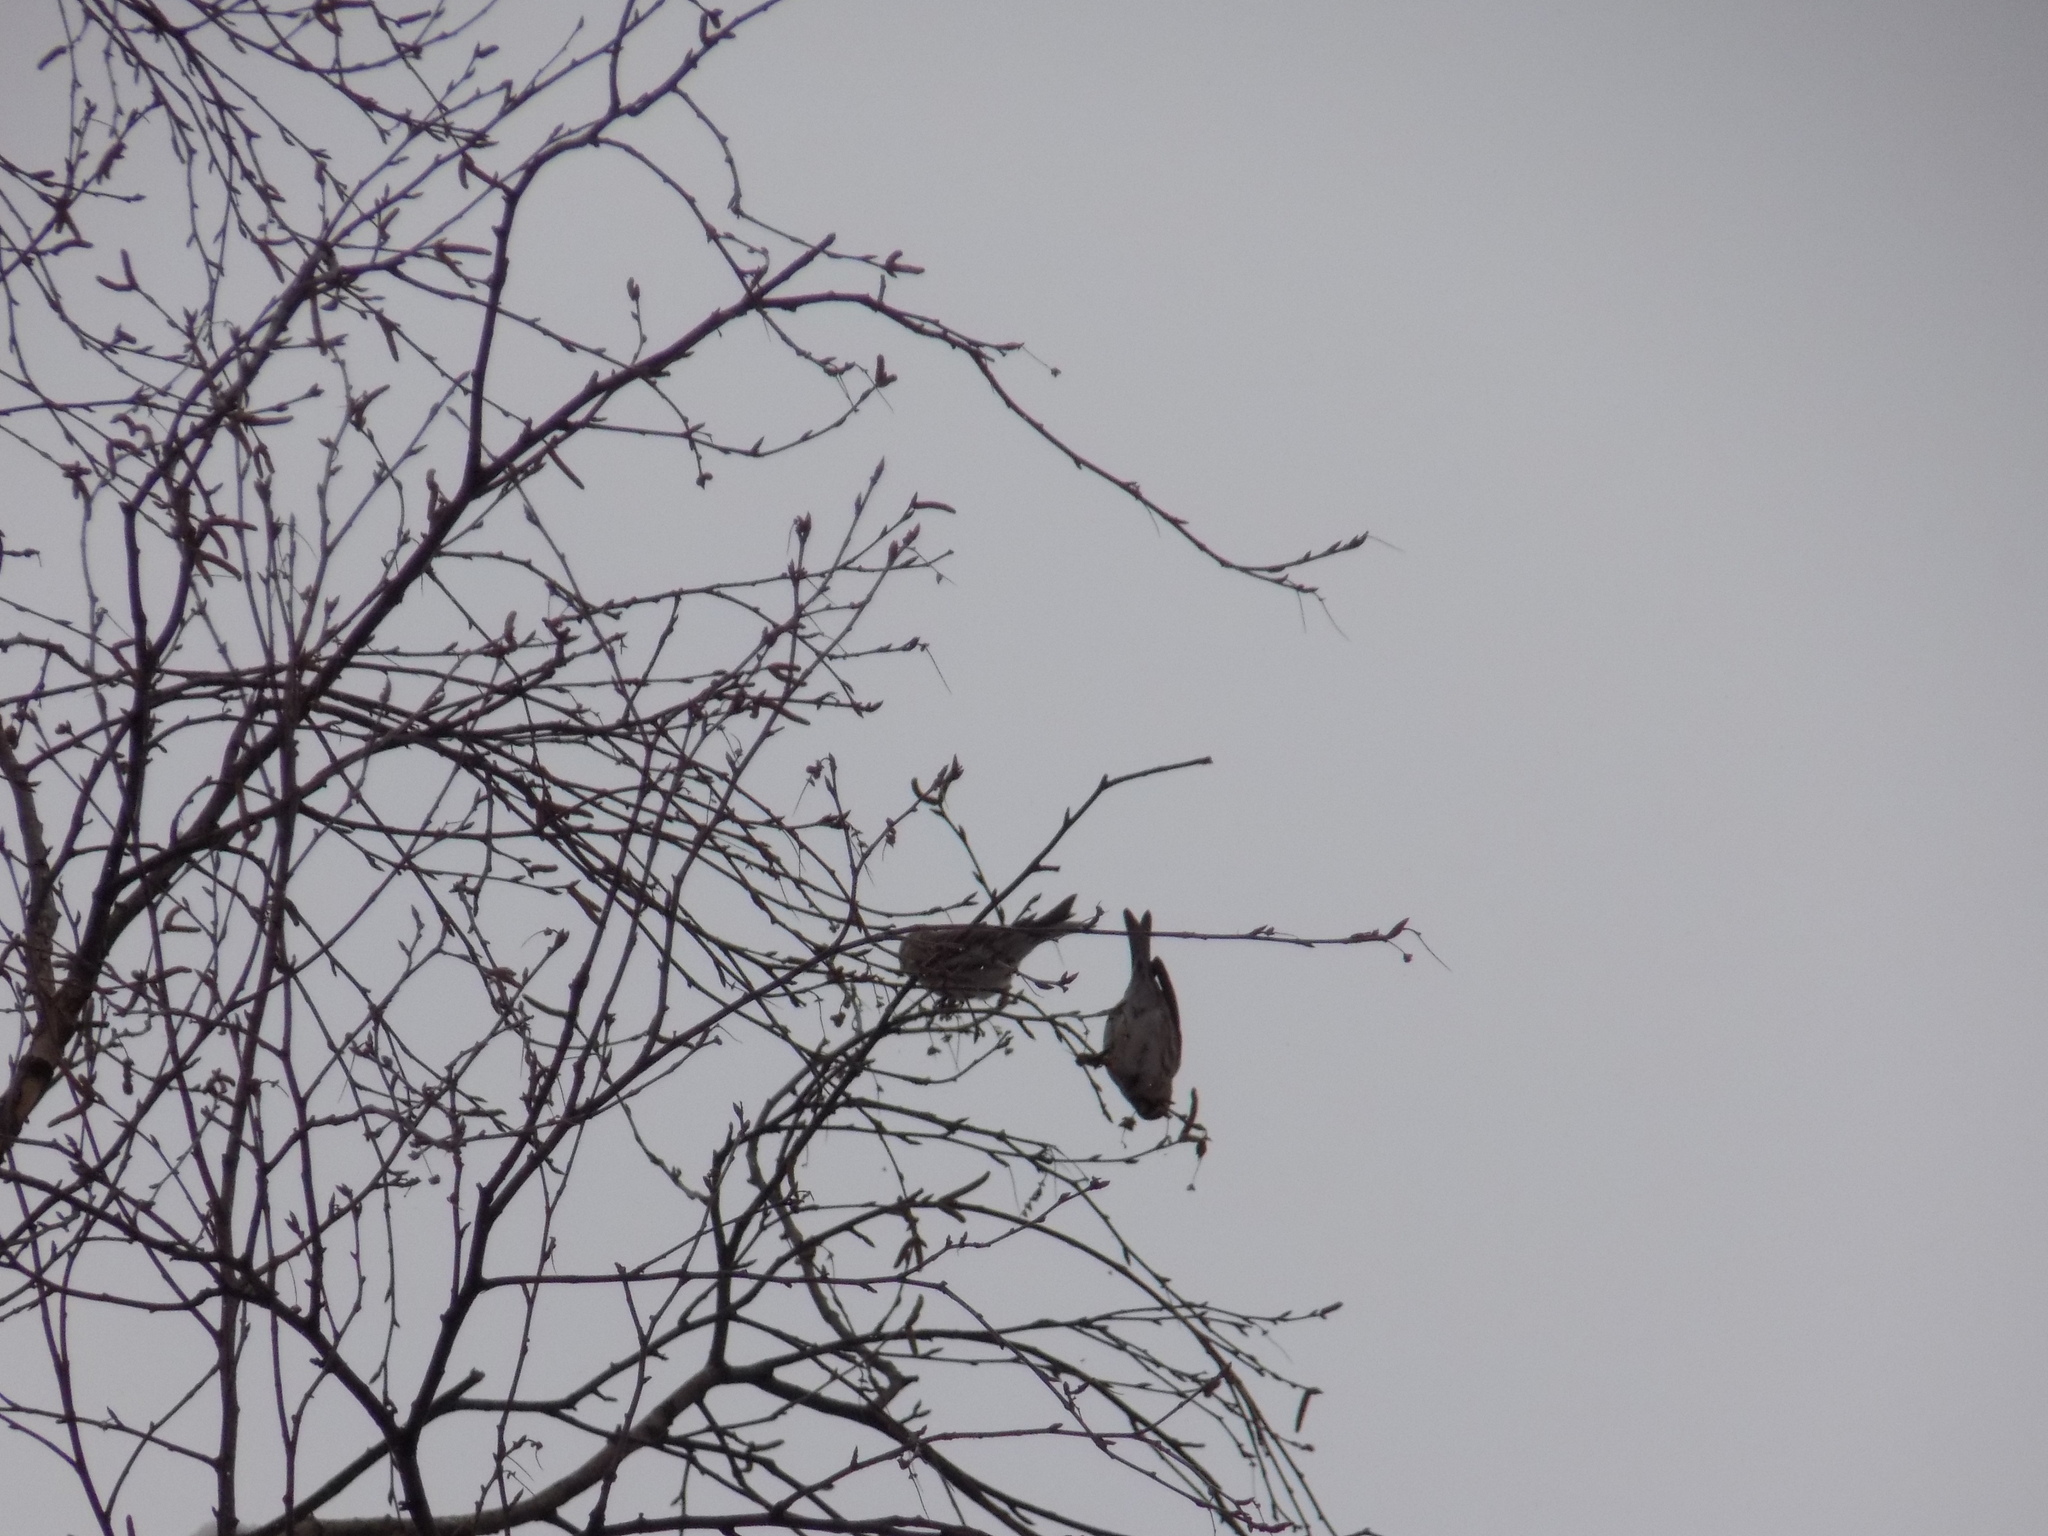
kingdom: Animalia
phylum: Chordata
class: Aves
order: Passeriformes
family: Fringillidae
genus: Acanthis
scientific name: Acanthis flammea
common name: Common redpoll
